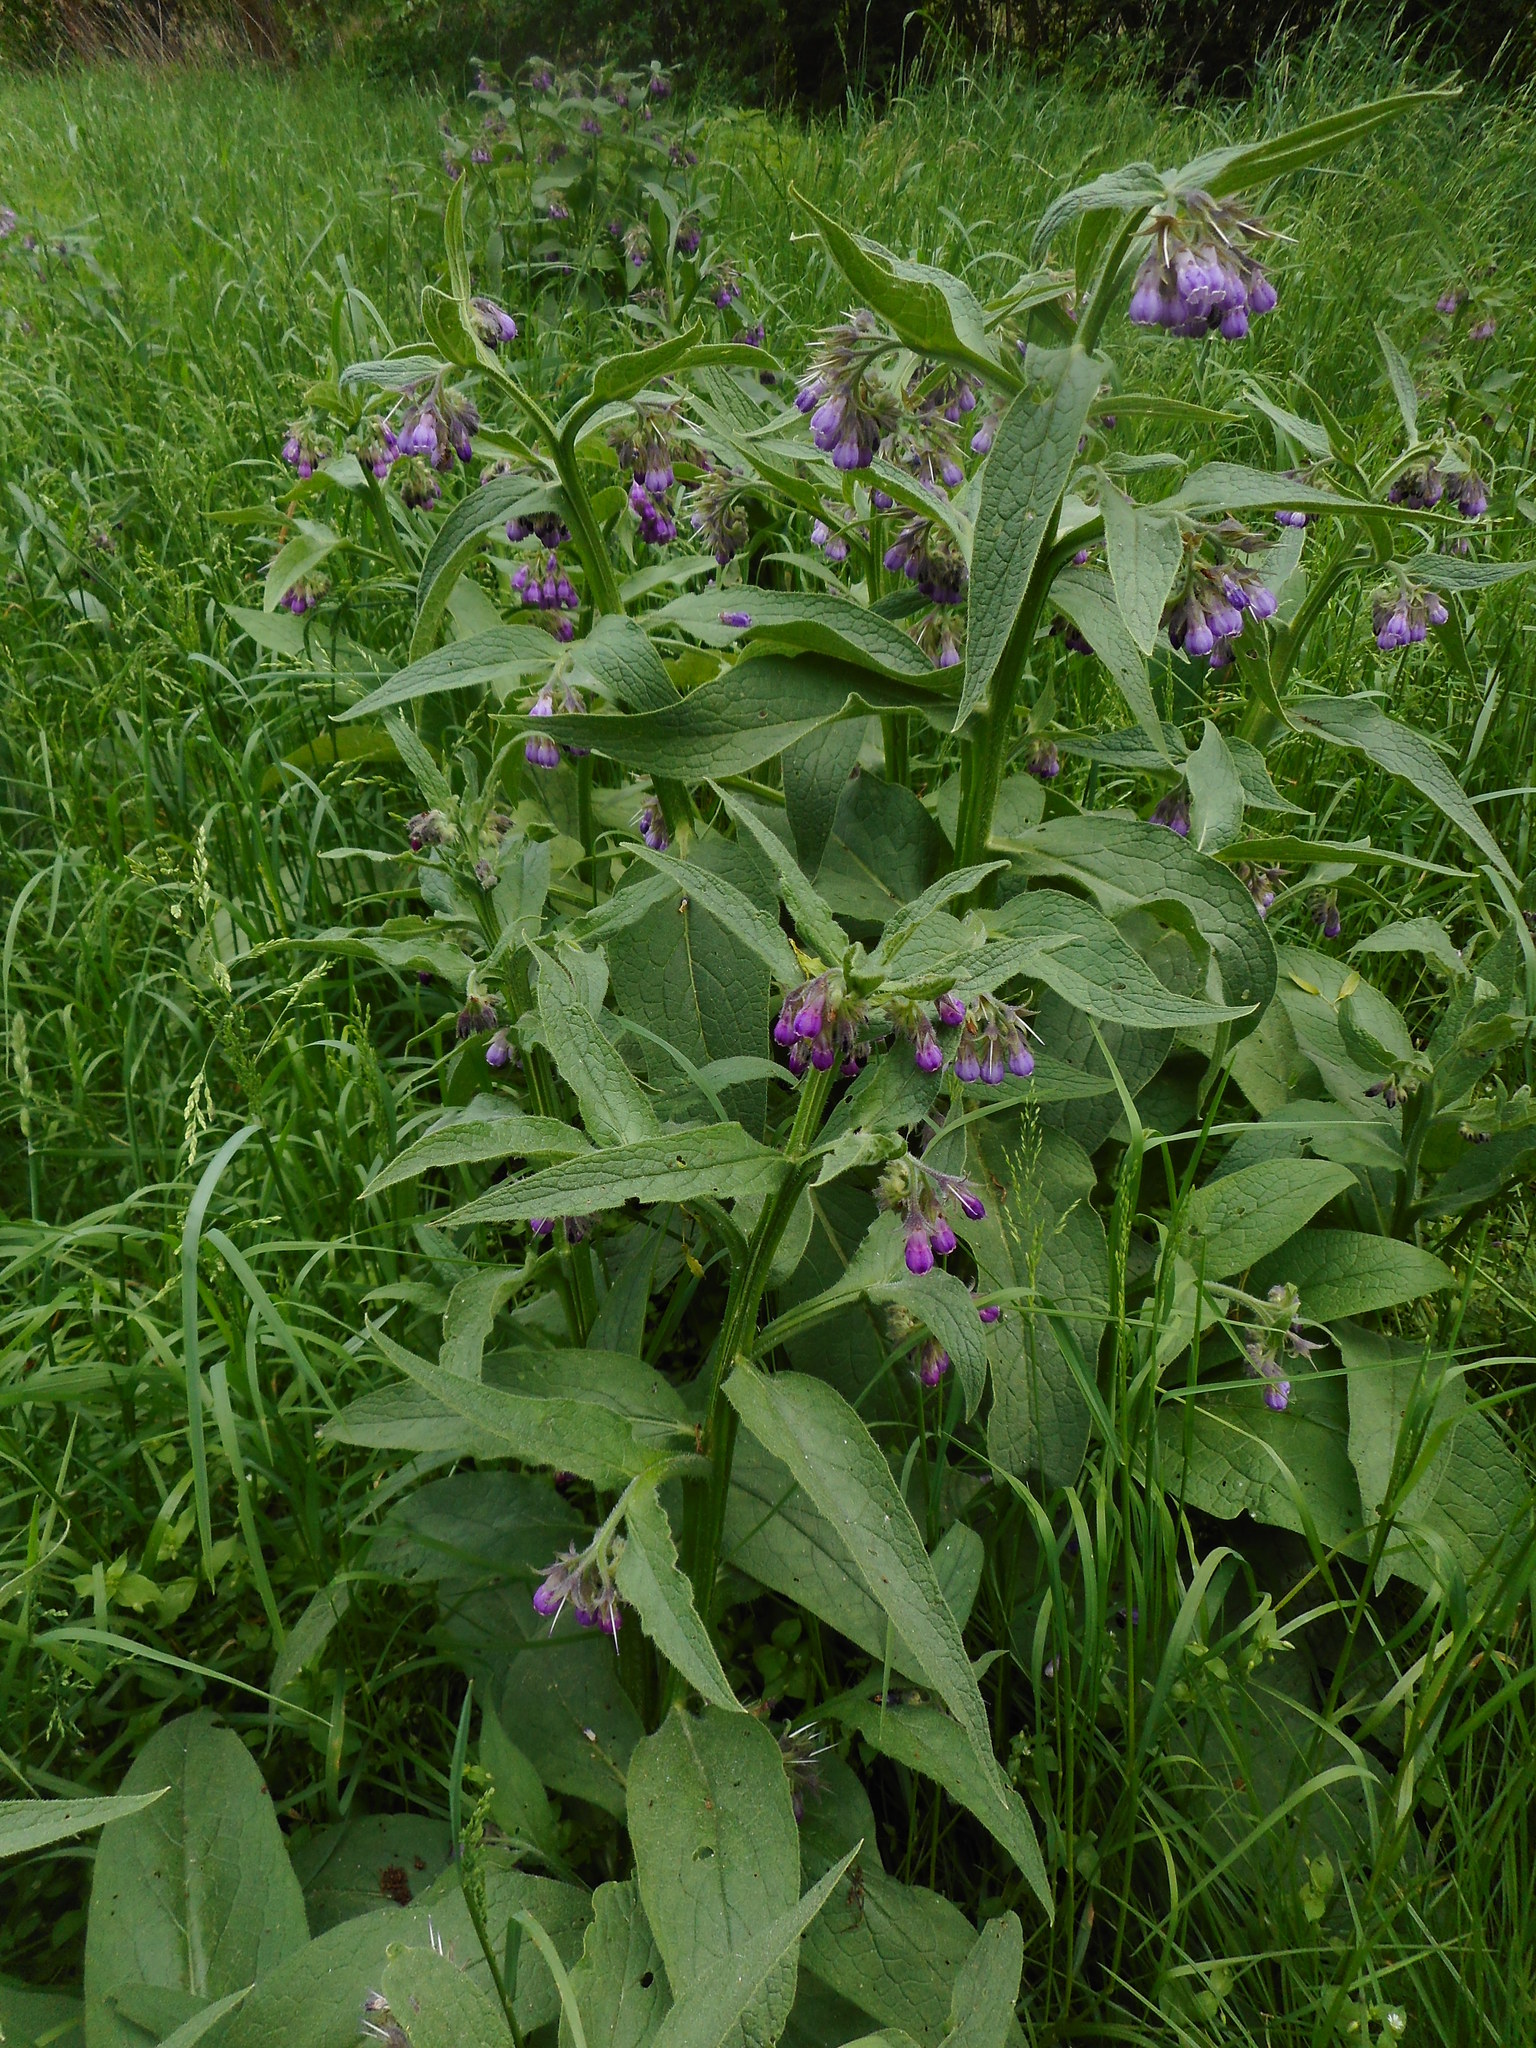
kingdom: Plantae
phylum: Tracheophyta
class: Magnoliopsida
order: Boraginales
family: Boraginaceae
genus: Symphytum
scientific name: Symphytum officinale
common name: Common comfrey
